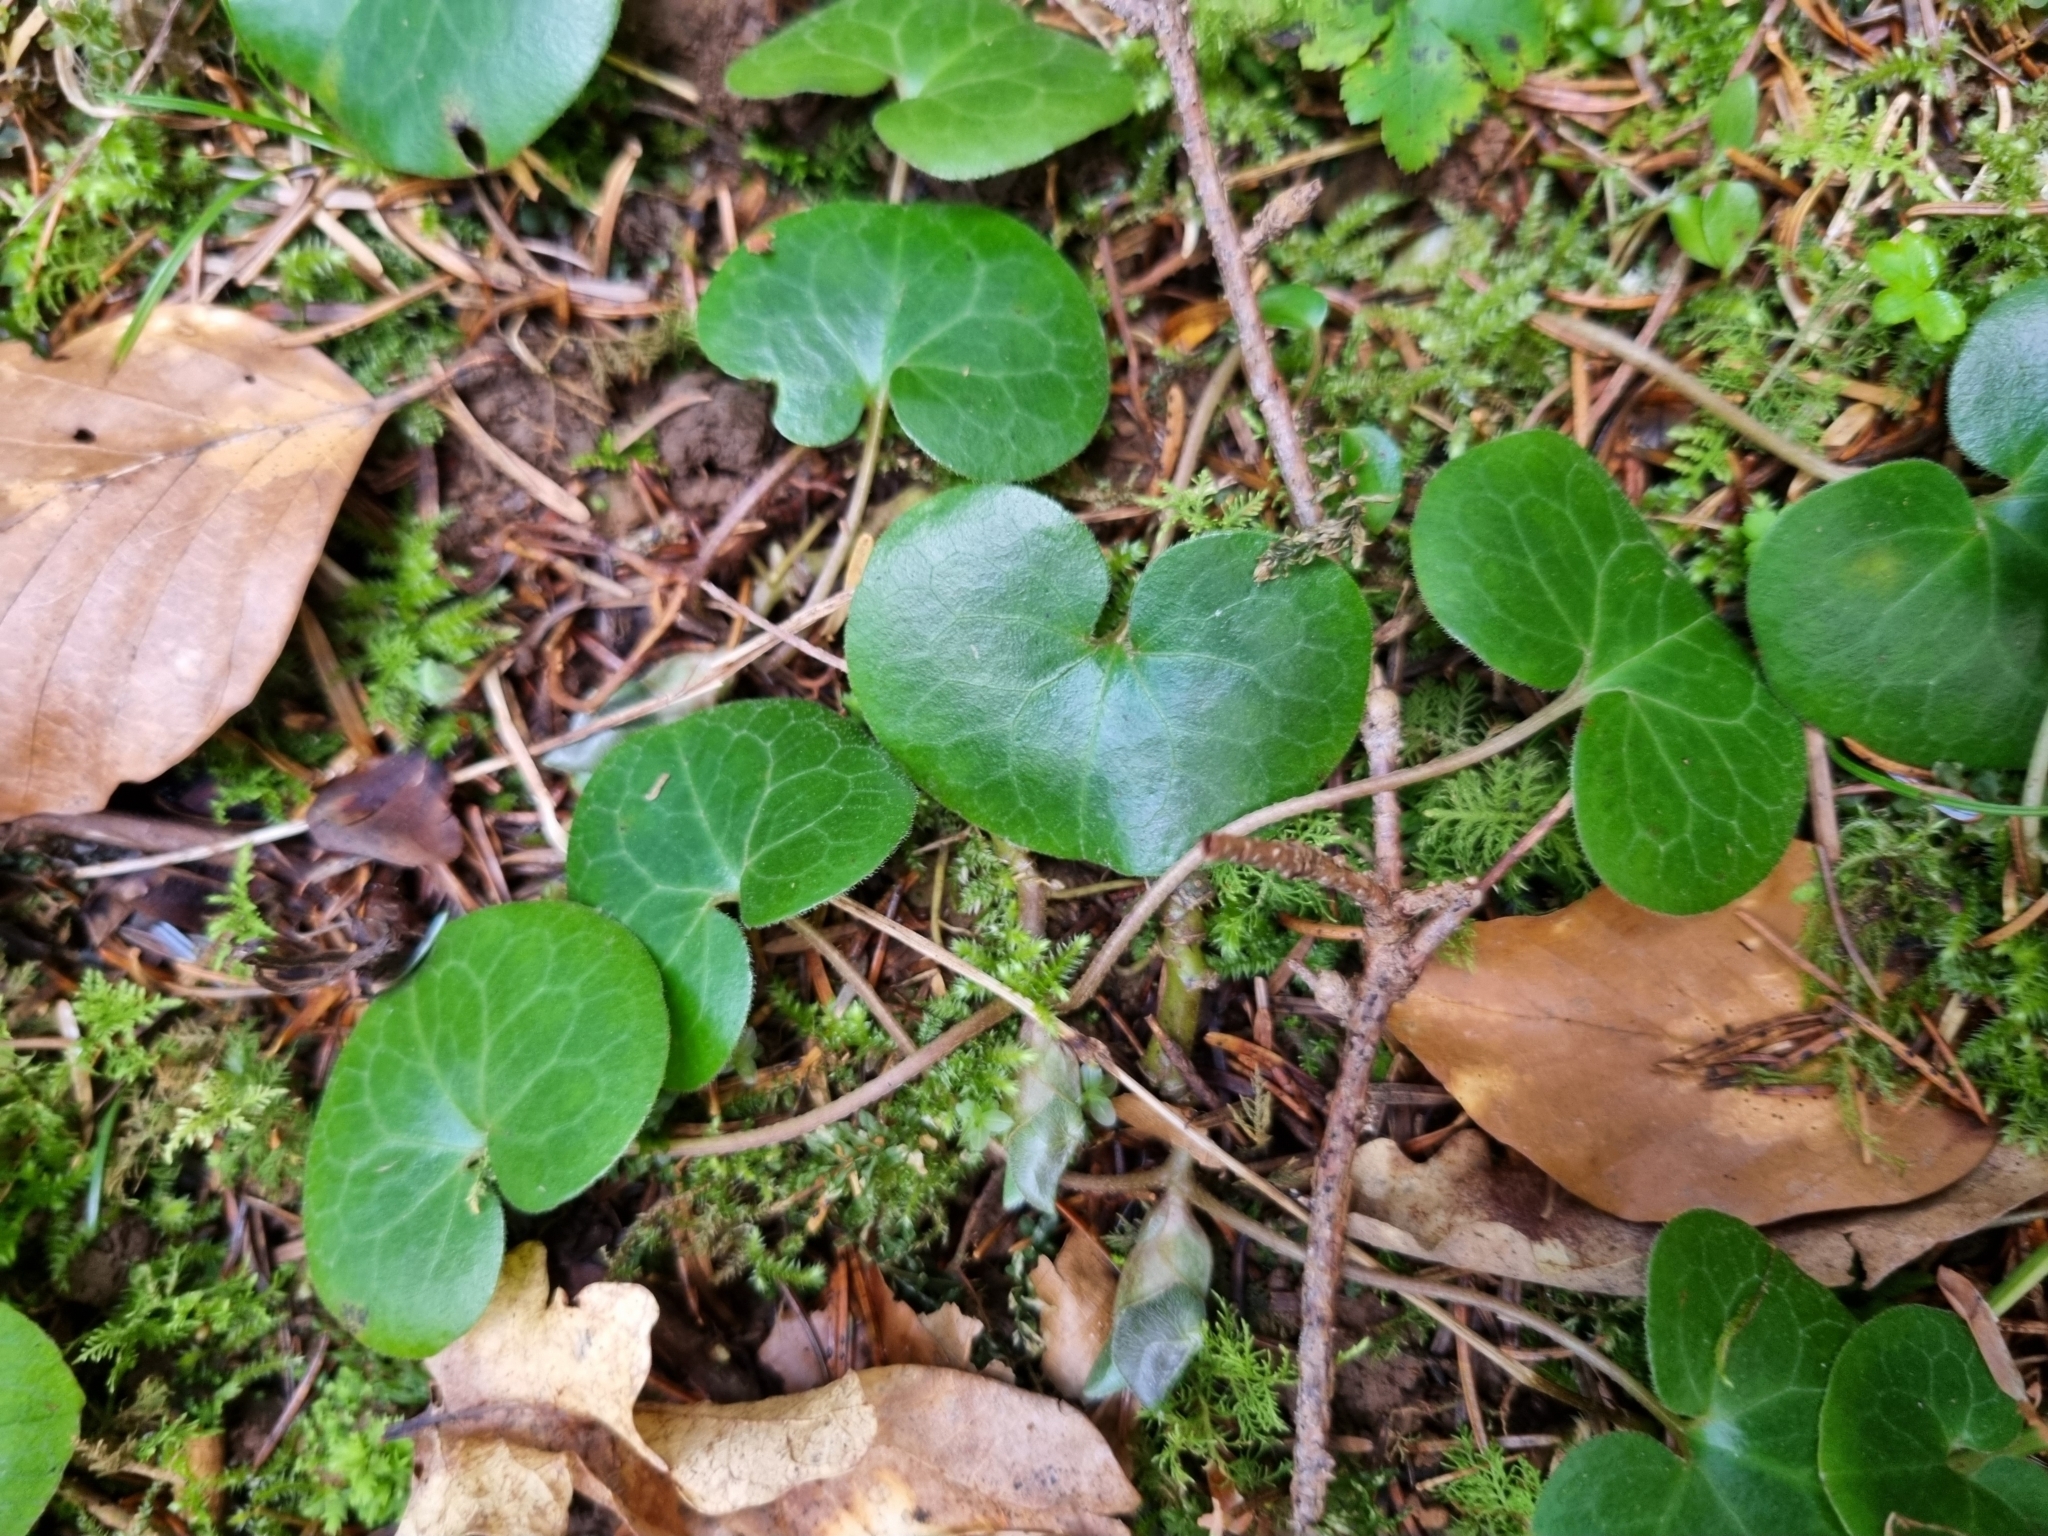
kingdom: Plantae
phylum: Tracheophyta
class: Magnoliopsida
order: Piperales
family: Aristolochiaceae
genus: Asarum
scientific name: Asarum europaeum
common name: Asarabacca
